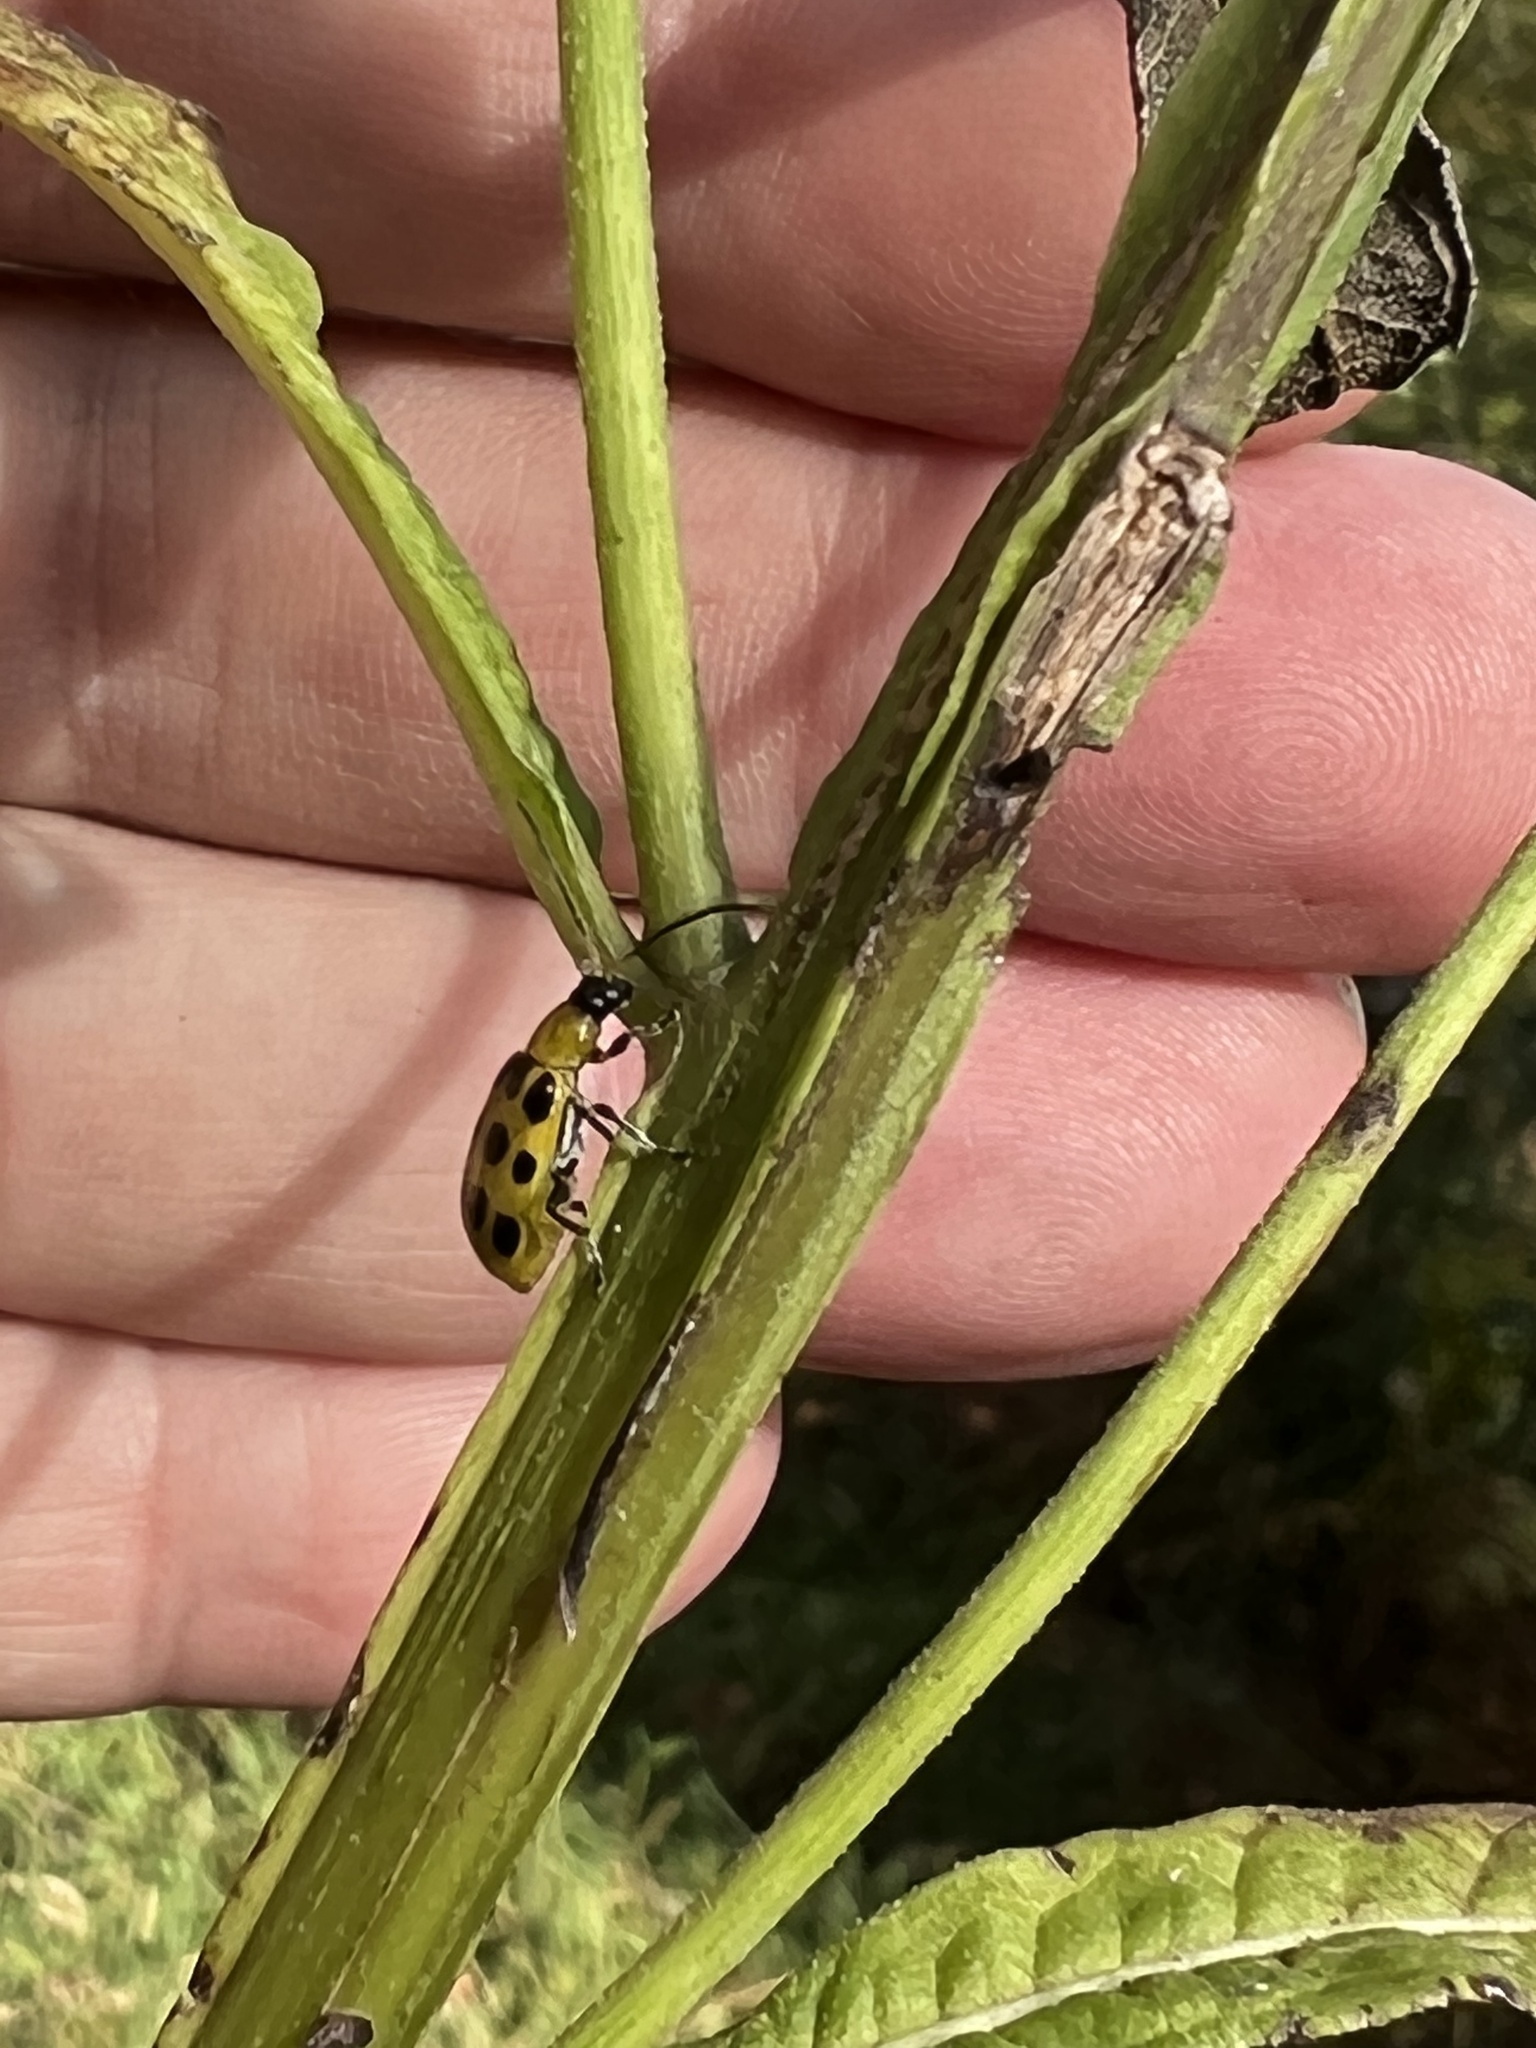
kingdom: Animalia
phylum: Arthropoda
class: Insecta
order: Coleoptera
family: Chrysomelidae
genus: Diabrotica
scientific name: Diabrotica undecimpunctata
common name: Spotted cucumber beetle
